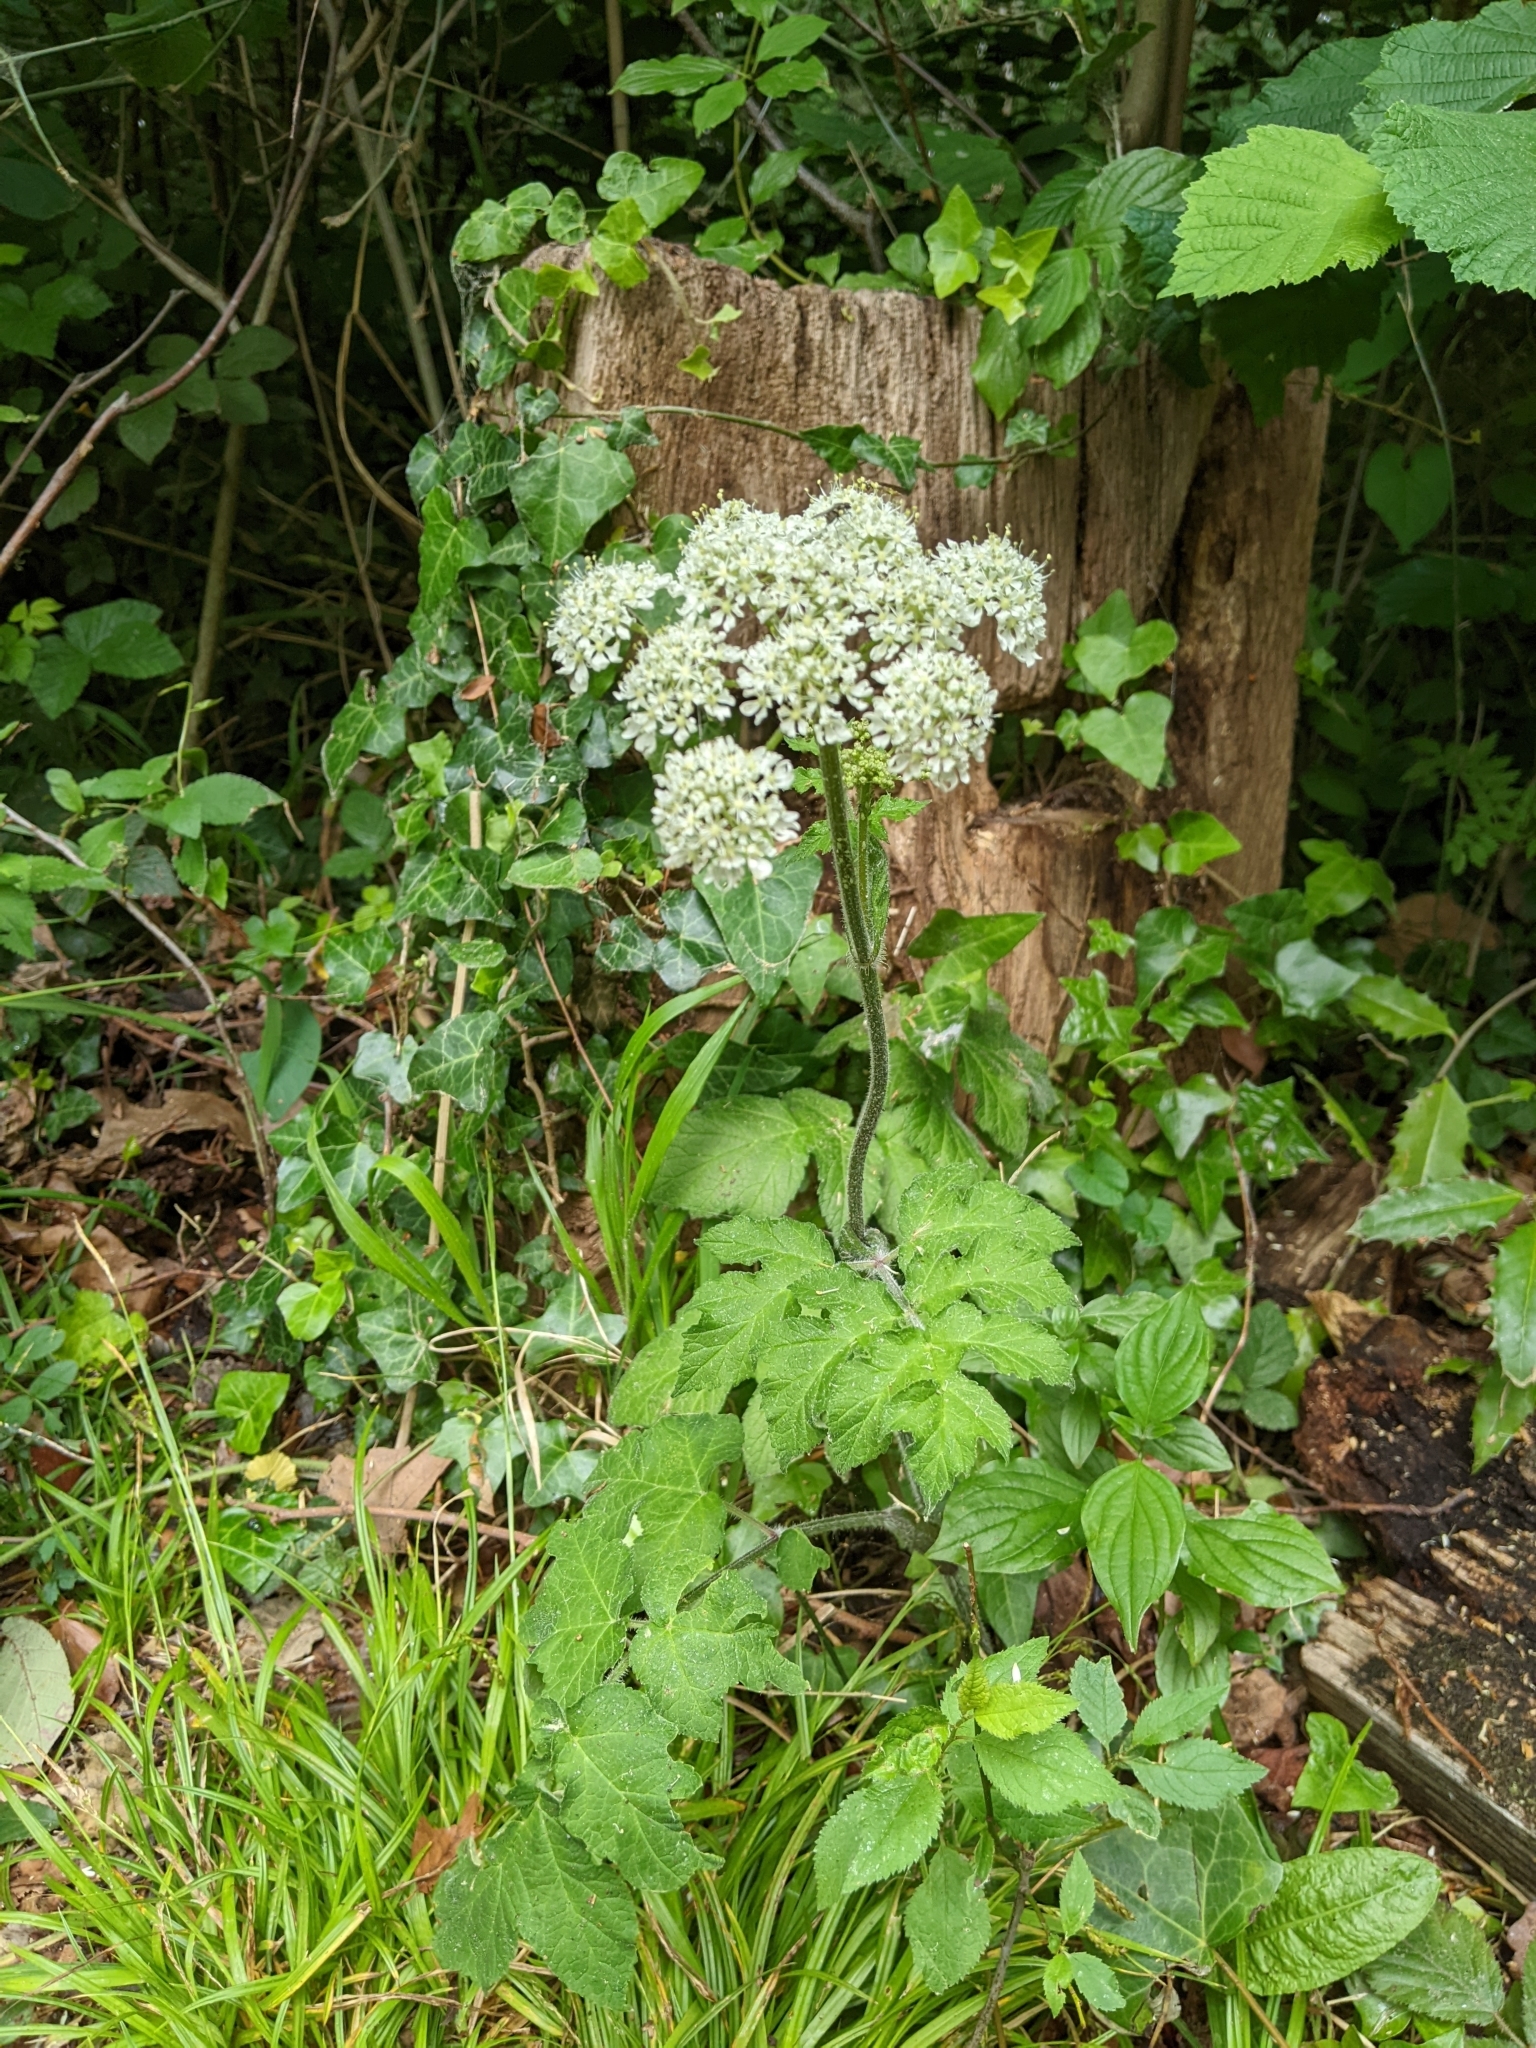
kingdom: Plantae
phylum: Tracheophyta
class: Magnoliopsida
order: Apiales
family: Apiaceae
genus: Heracleum
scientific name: Heracleum sphondylium
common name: Hogweed
